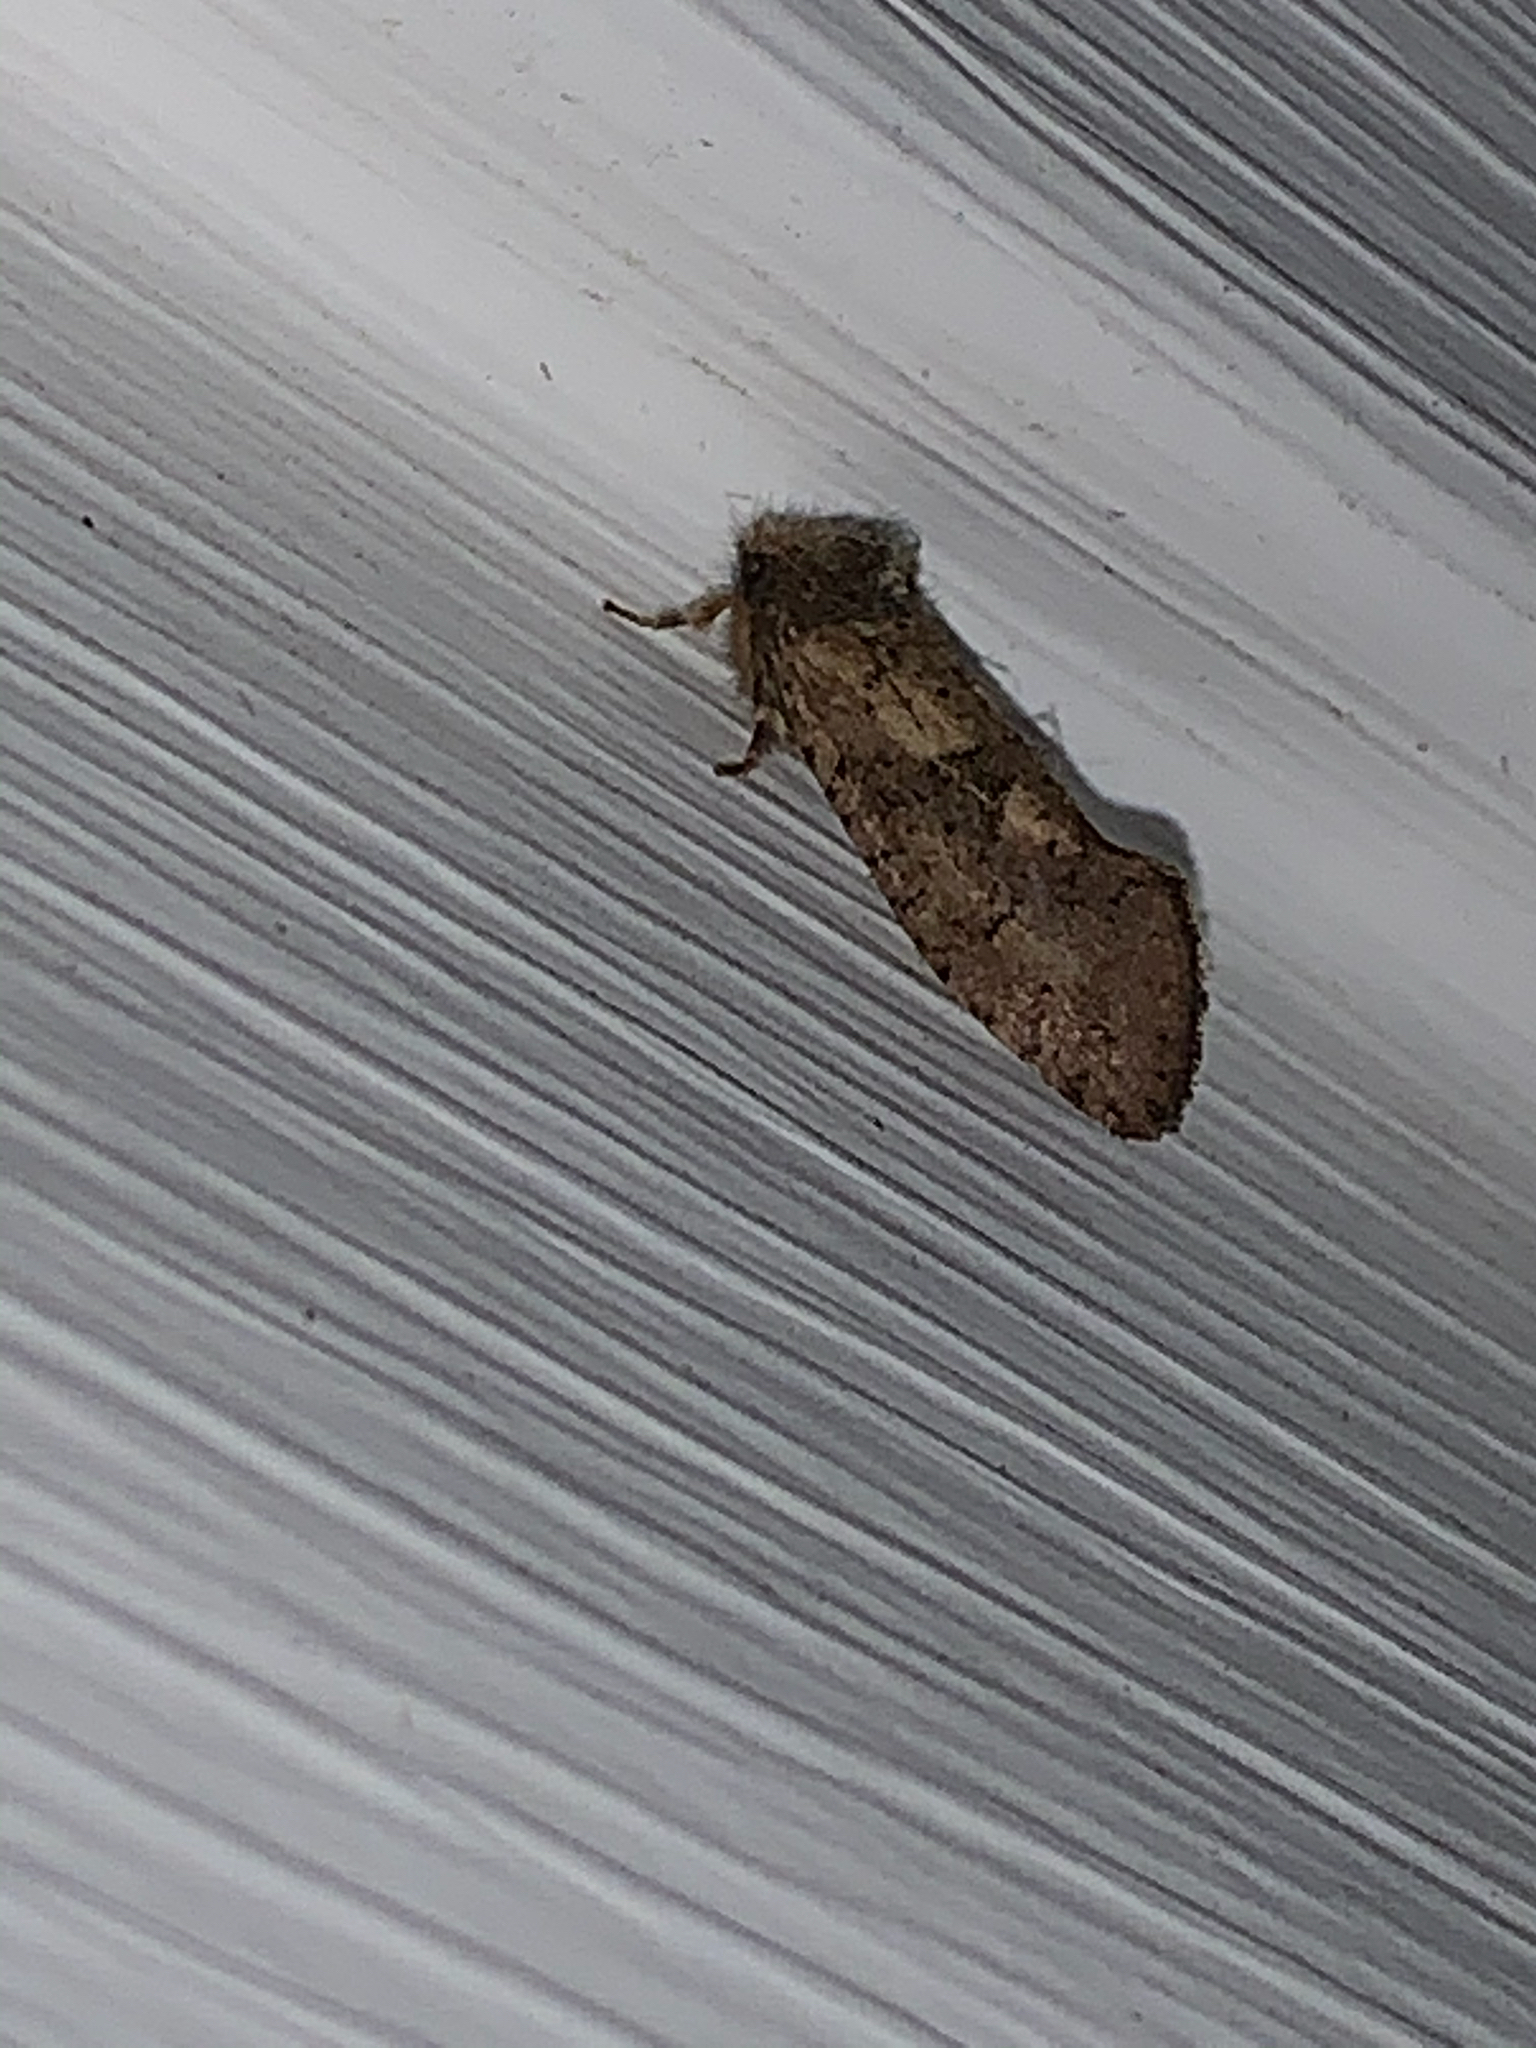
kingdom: Animalia
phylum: Arthropoda
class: Insecta
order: Lepidoptera
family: Tineidae
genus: Acrolophus
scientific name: Acrolophus mora
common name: Dark acrolophus
